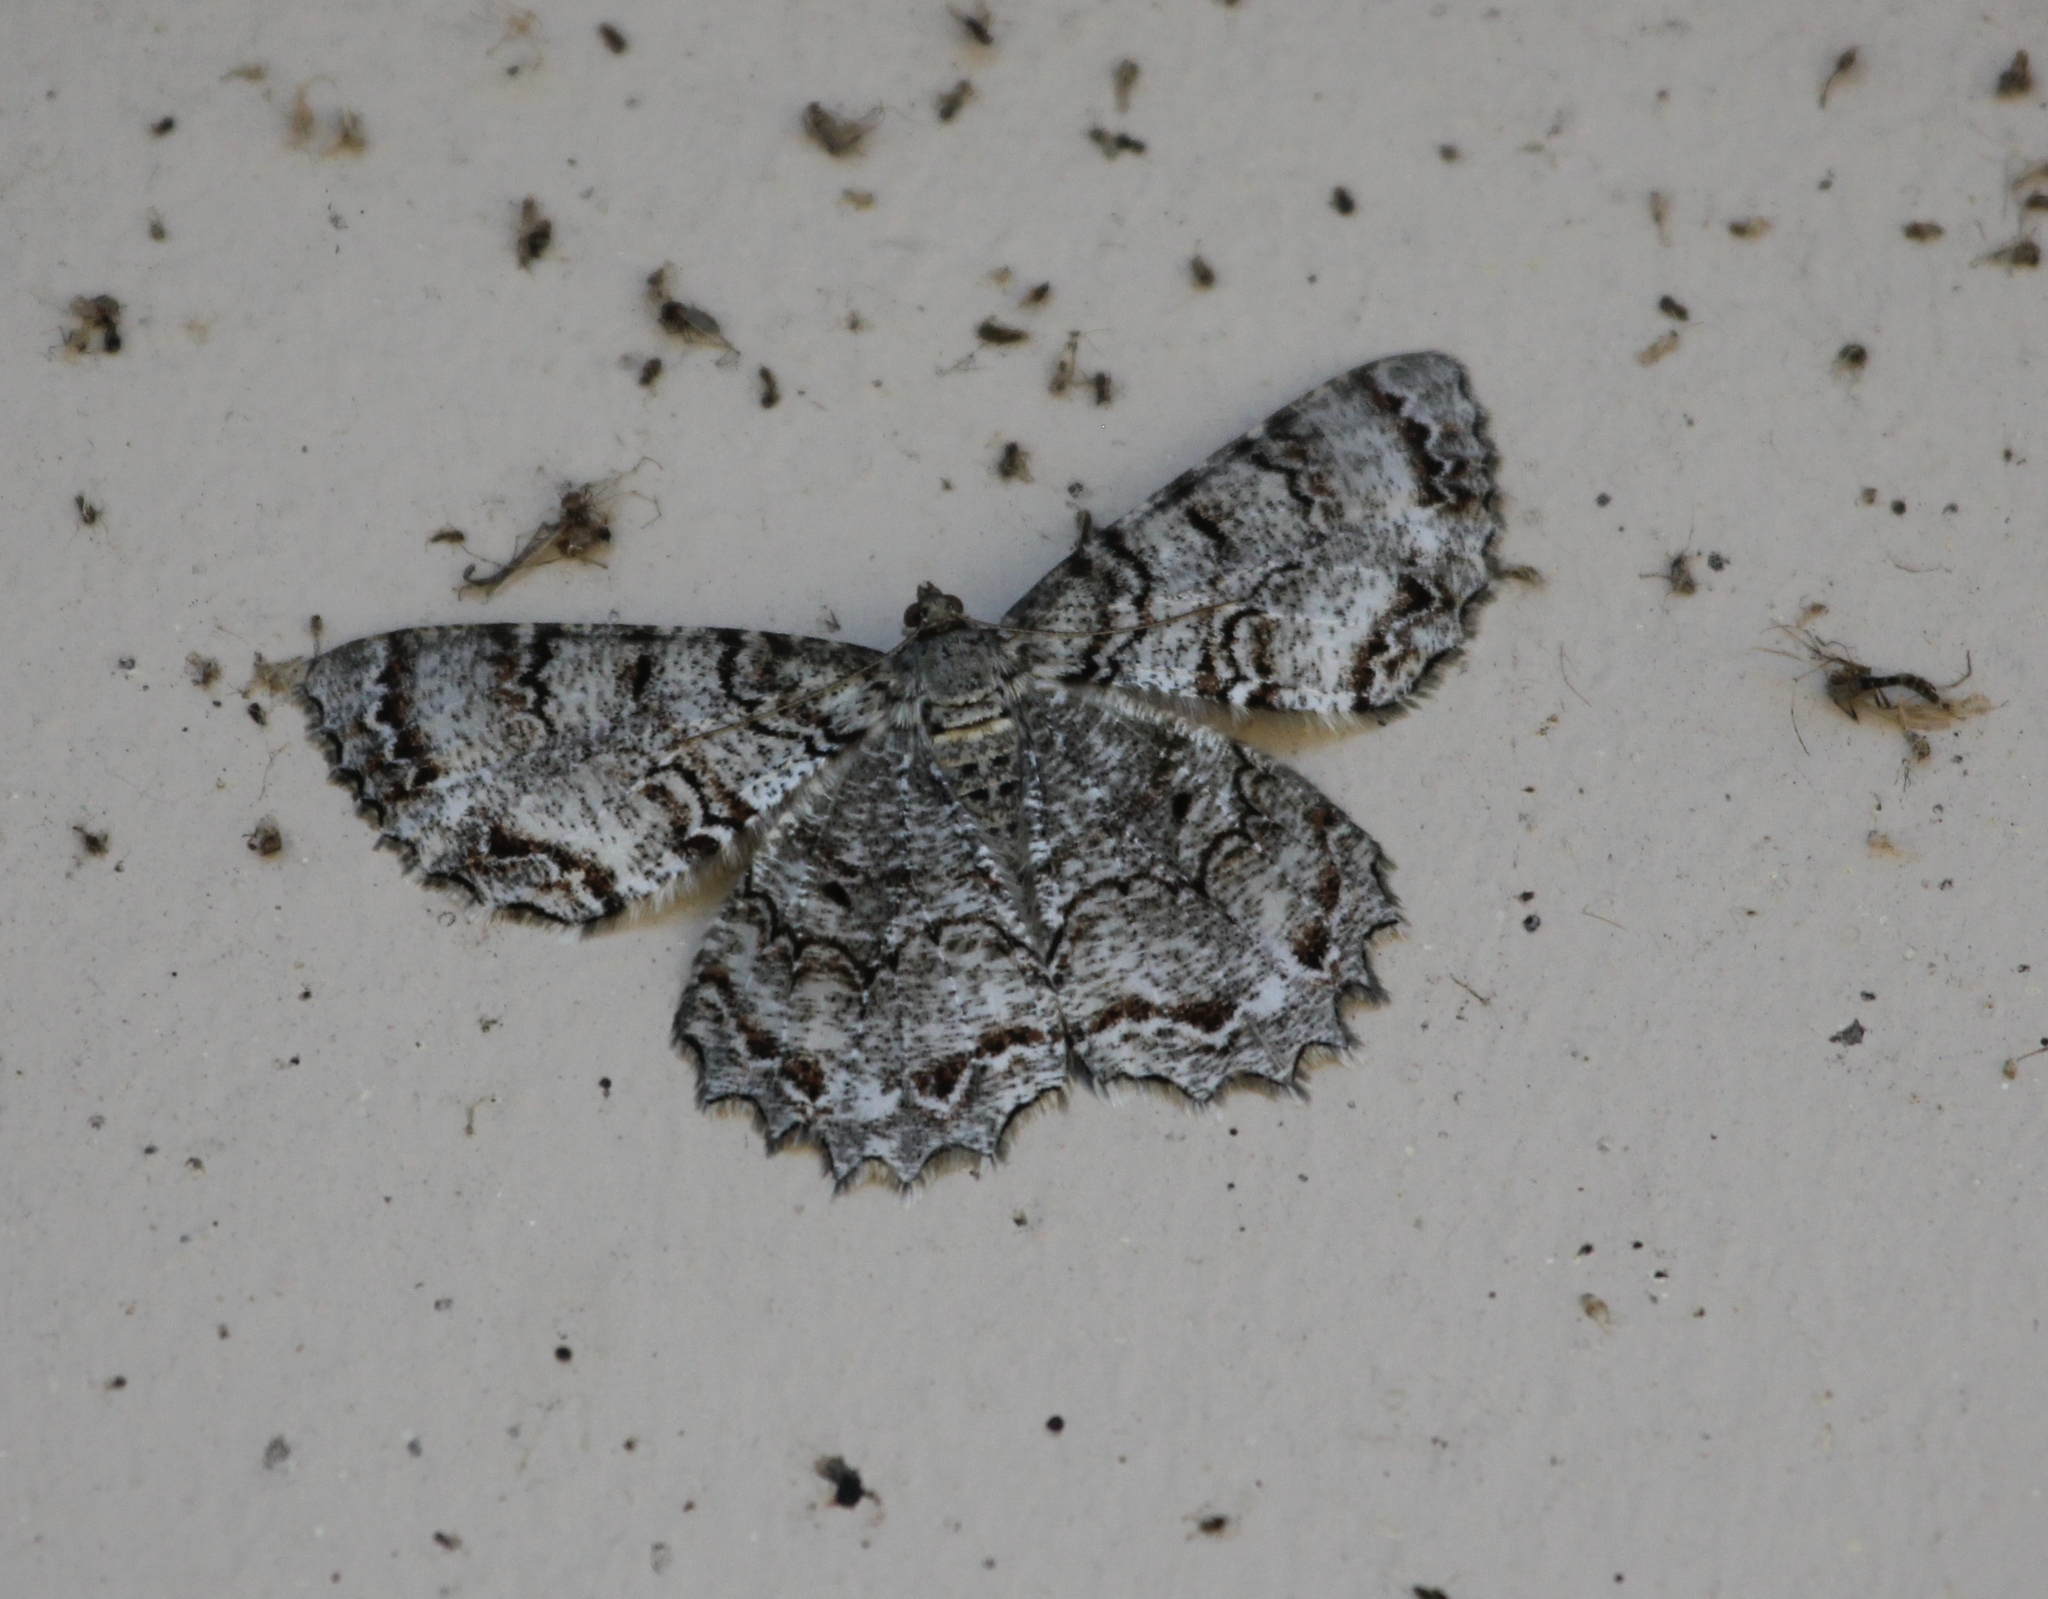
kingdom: Animalia
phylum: Arthropoda
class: Insecta
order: Lepidoptera
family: Geometridae
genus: Epimecis
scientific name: Epimecis hortaria
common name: Tulip-tree beauty
